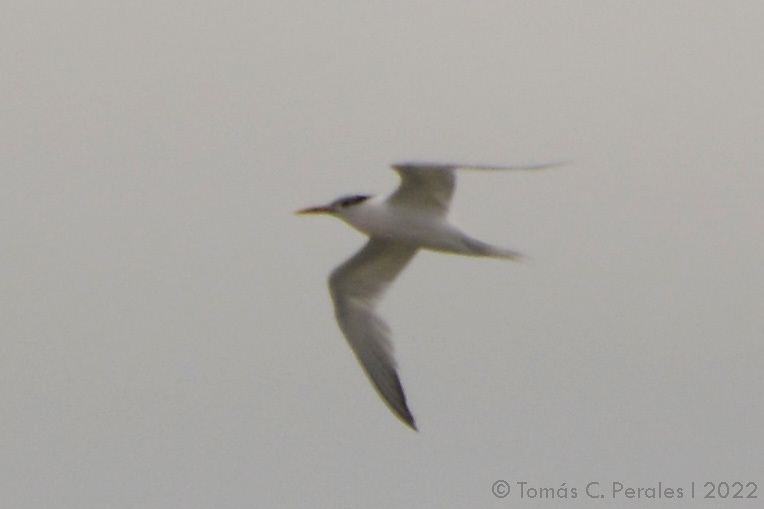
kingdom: Animalia
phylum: Chordata
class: Aves
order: Charadriiformes
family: Laridae
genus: Thalasseus
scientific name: Thalasseus maximus
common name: Royal tern
